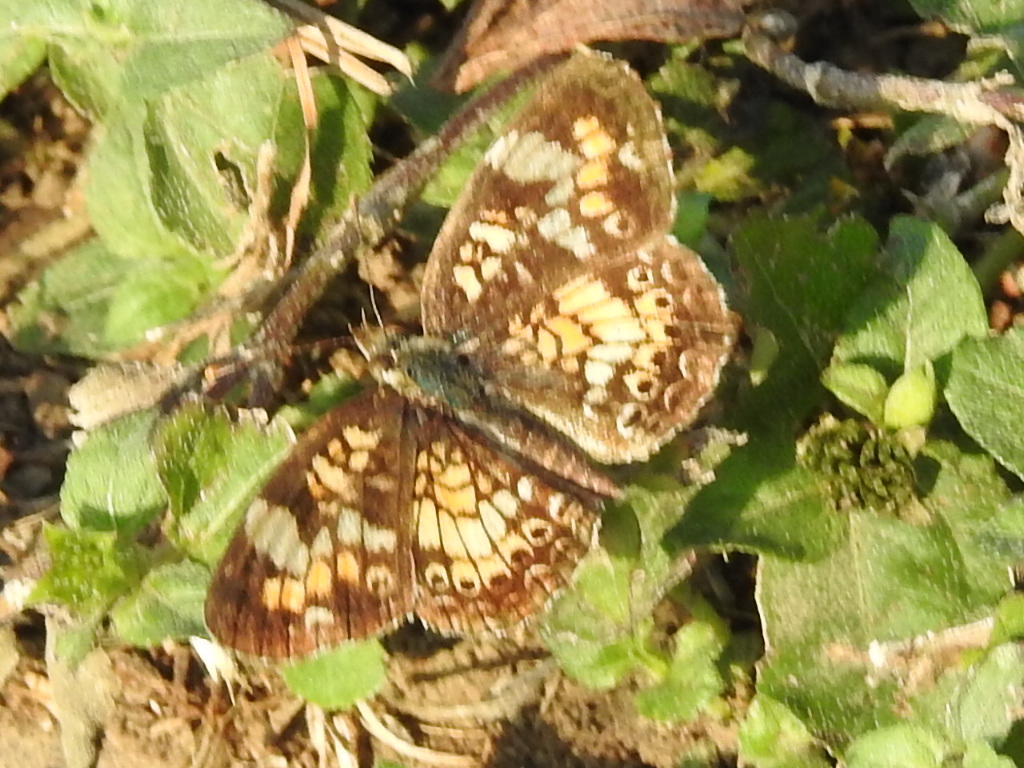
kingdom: Animalia
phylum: Arthropoda
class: Insecta
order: Lepidoptera
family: Nymphalidae
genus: Phyciodes
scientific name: Phyciodes phaon
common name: Phaon crescent
